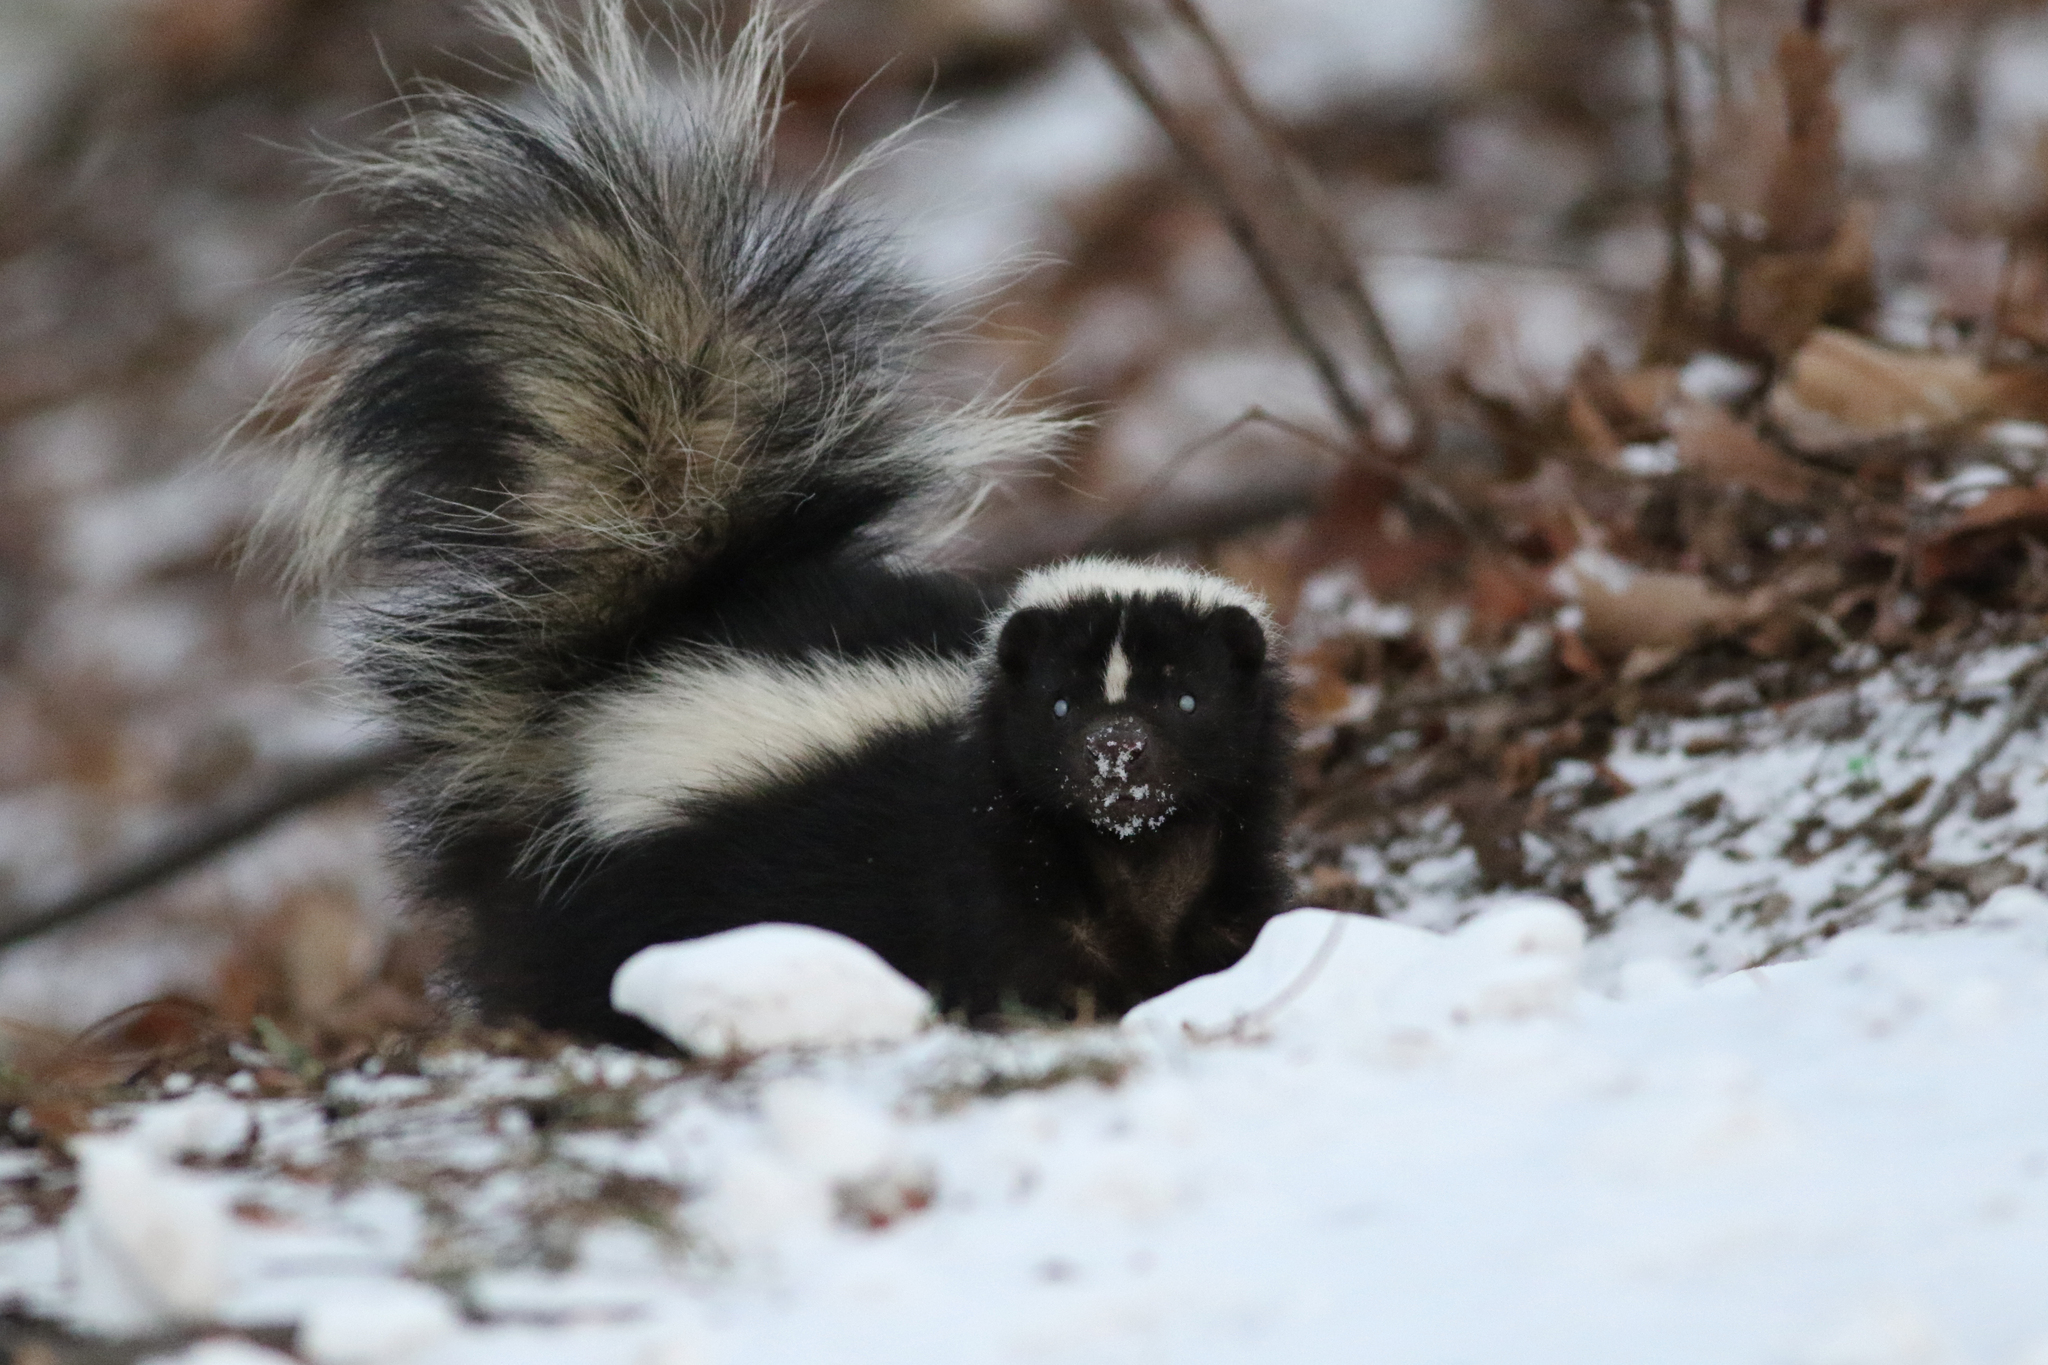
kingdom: Animalia
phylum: Chordata
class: Mammalia
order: Carnivora
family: Mephitidae
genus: Mephitis
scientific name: Mephitis mephitis
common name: Striped skunk
